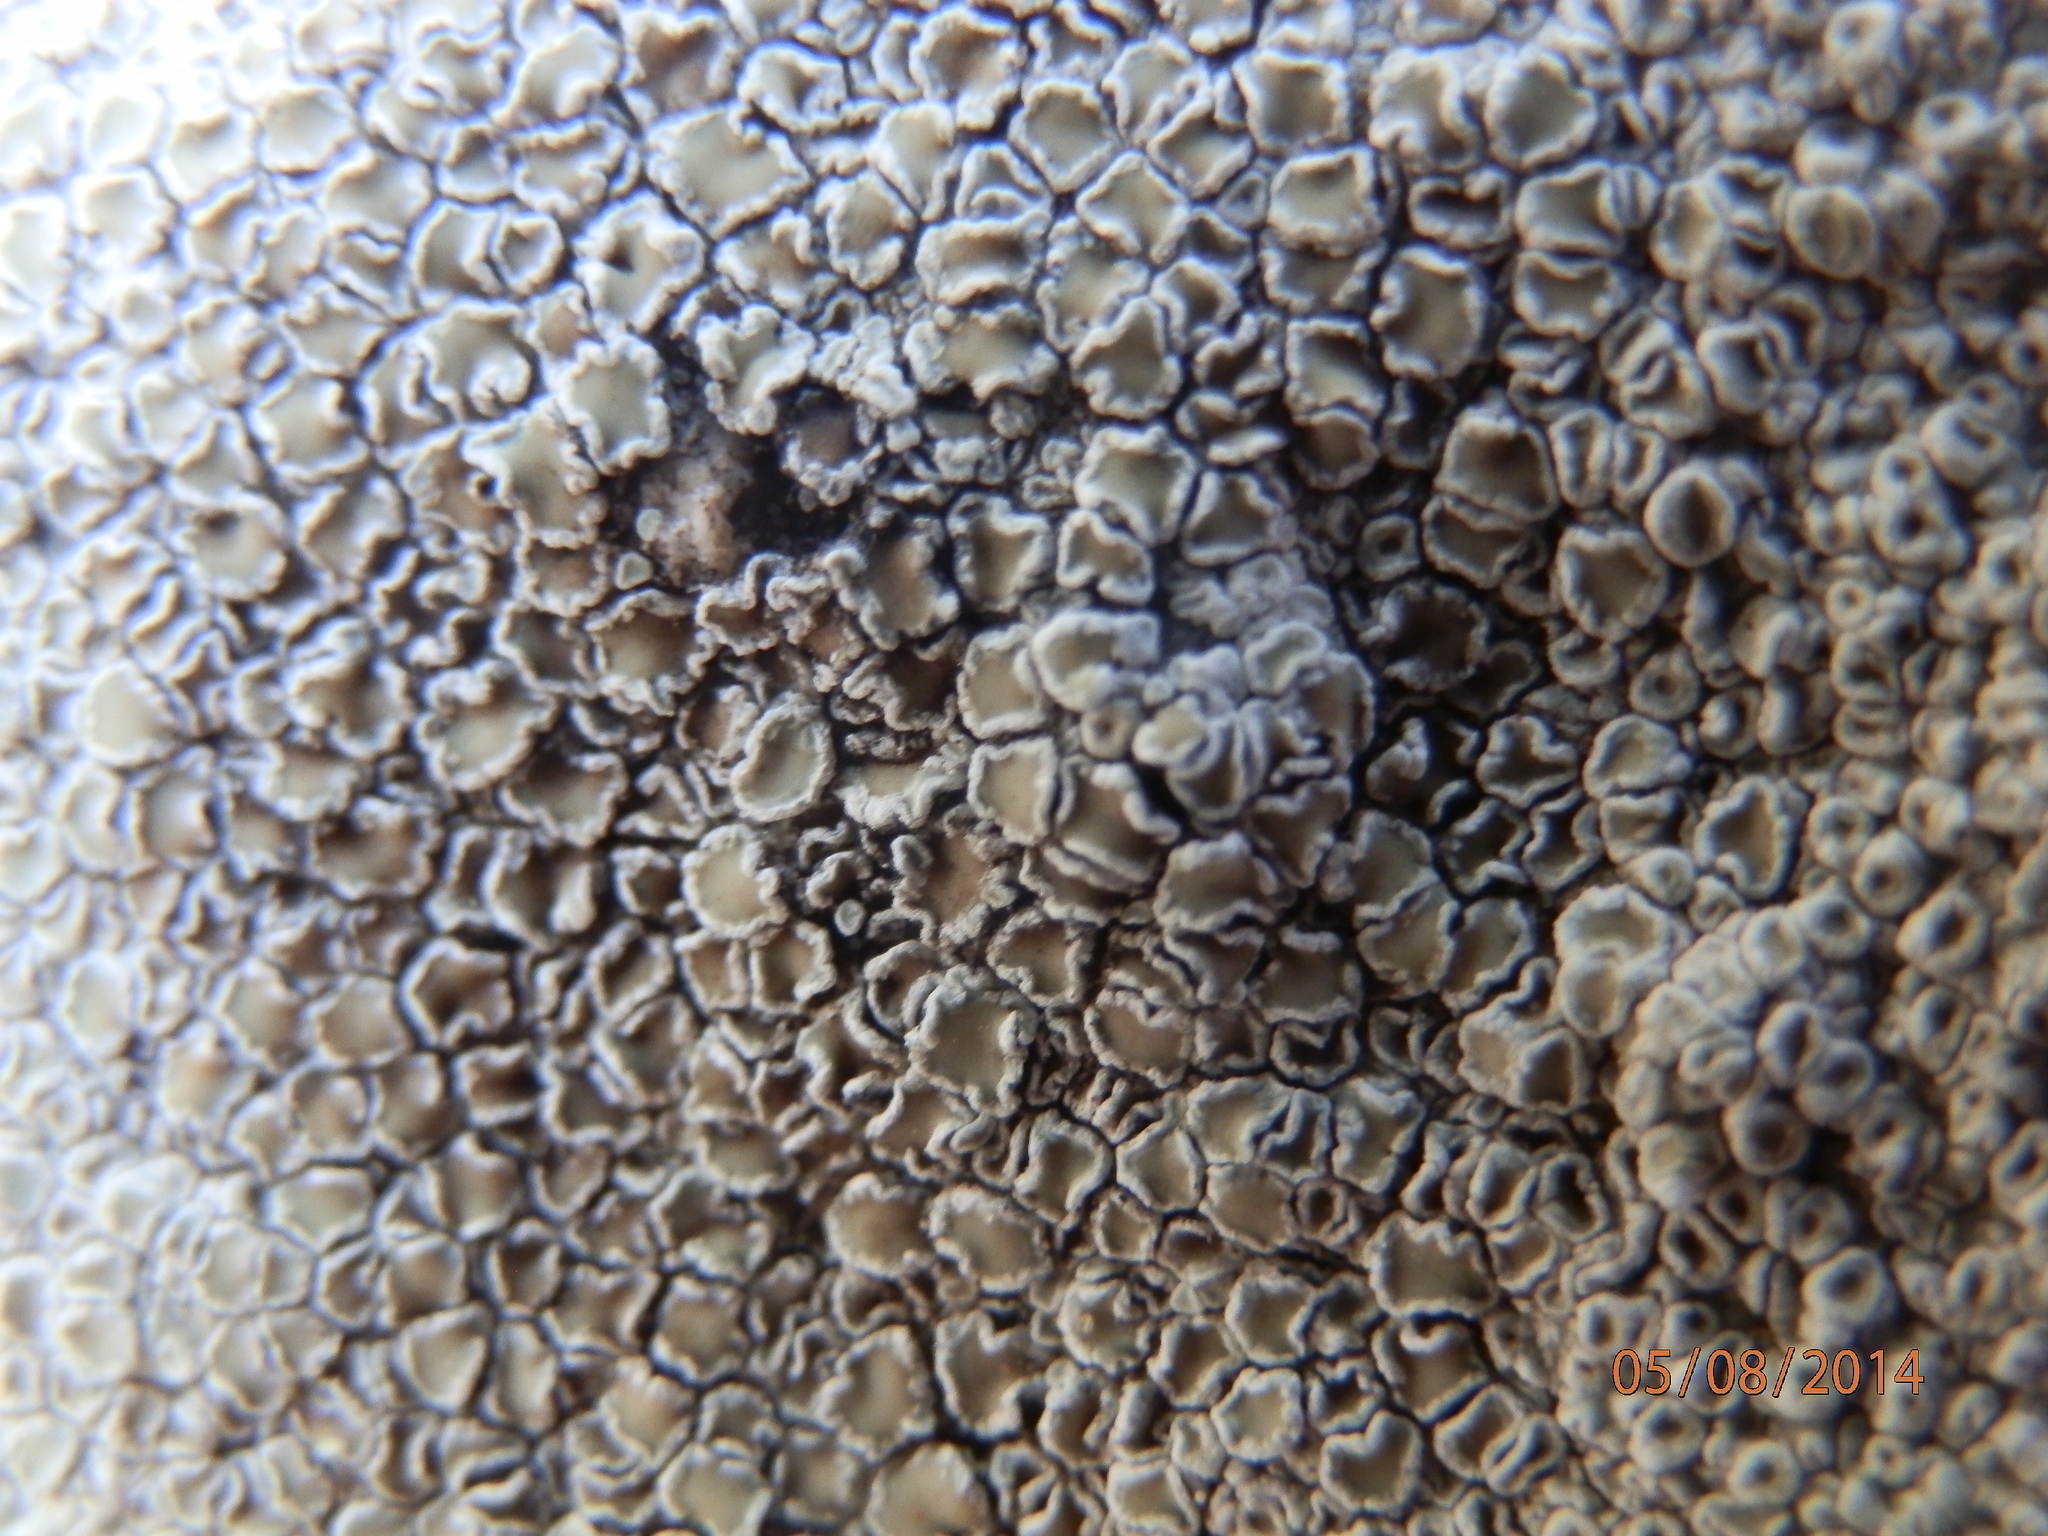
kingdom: Fungi
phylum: Ascomycota
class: Lecanoromycetes
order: Lecanorales
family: Lecanoraceae
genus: Protoparmeliopsis
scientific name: Protoparmeliopsis muralis
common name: Stonewall rim lichen
